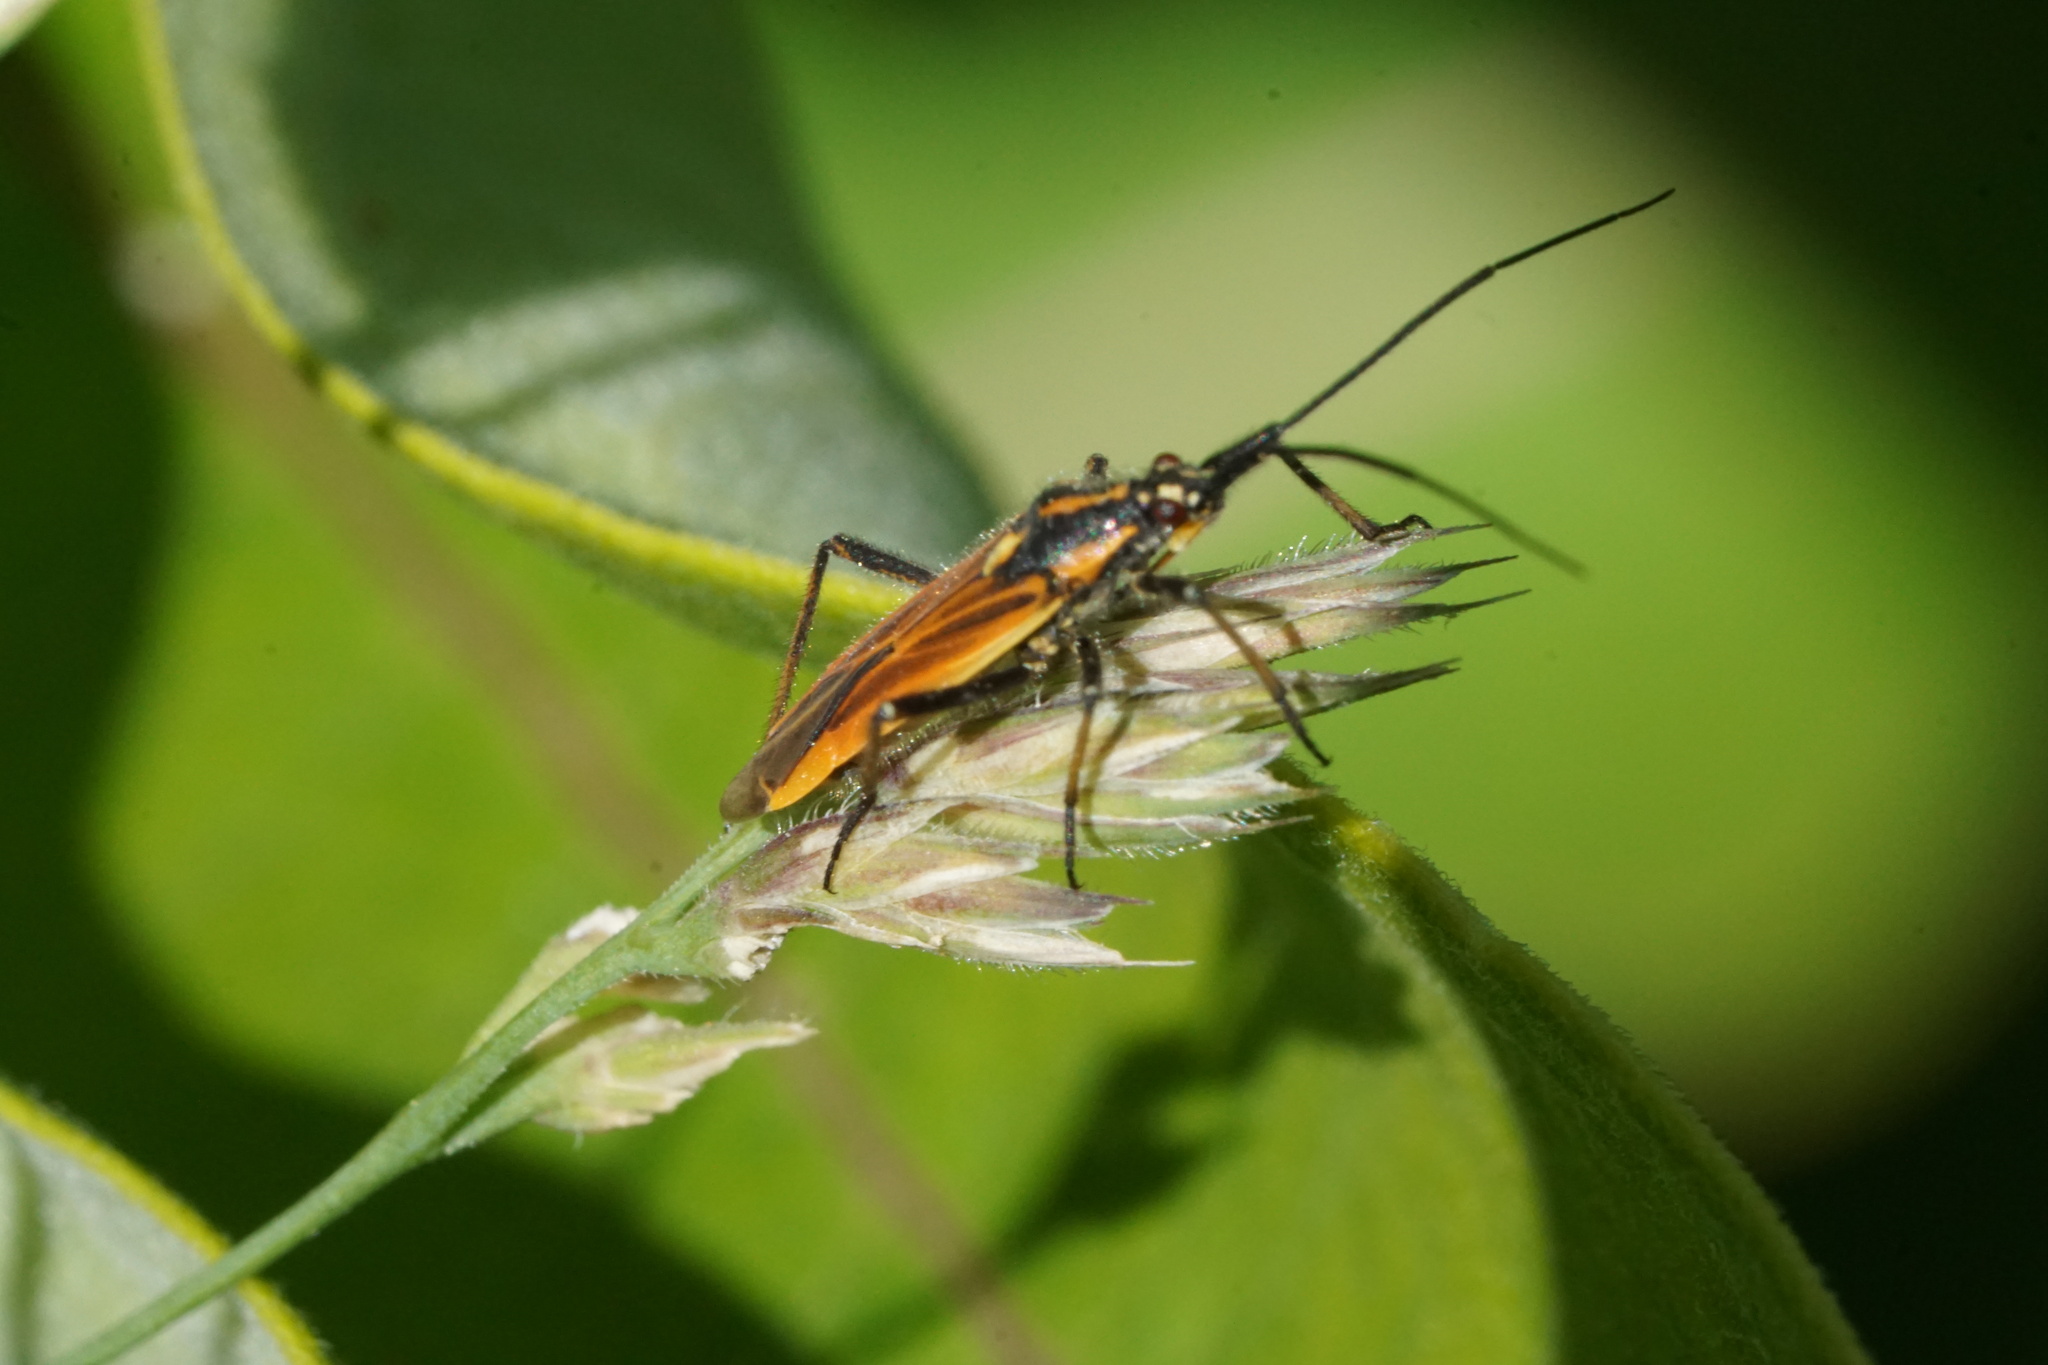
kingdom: Animalia
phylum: Arthropoda
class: Insecta
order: Hemiptera
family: Miridae
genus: Leptopterna
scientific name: Leptopterna dolabrata
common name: Meadow plant bug
